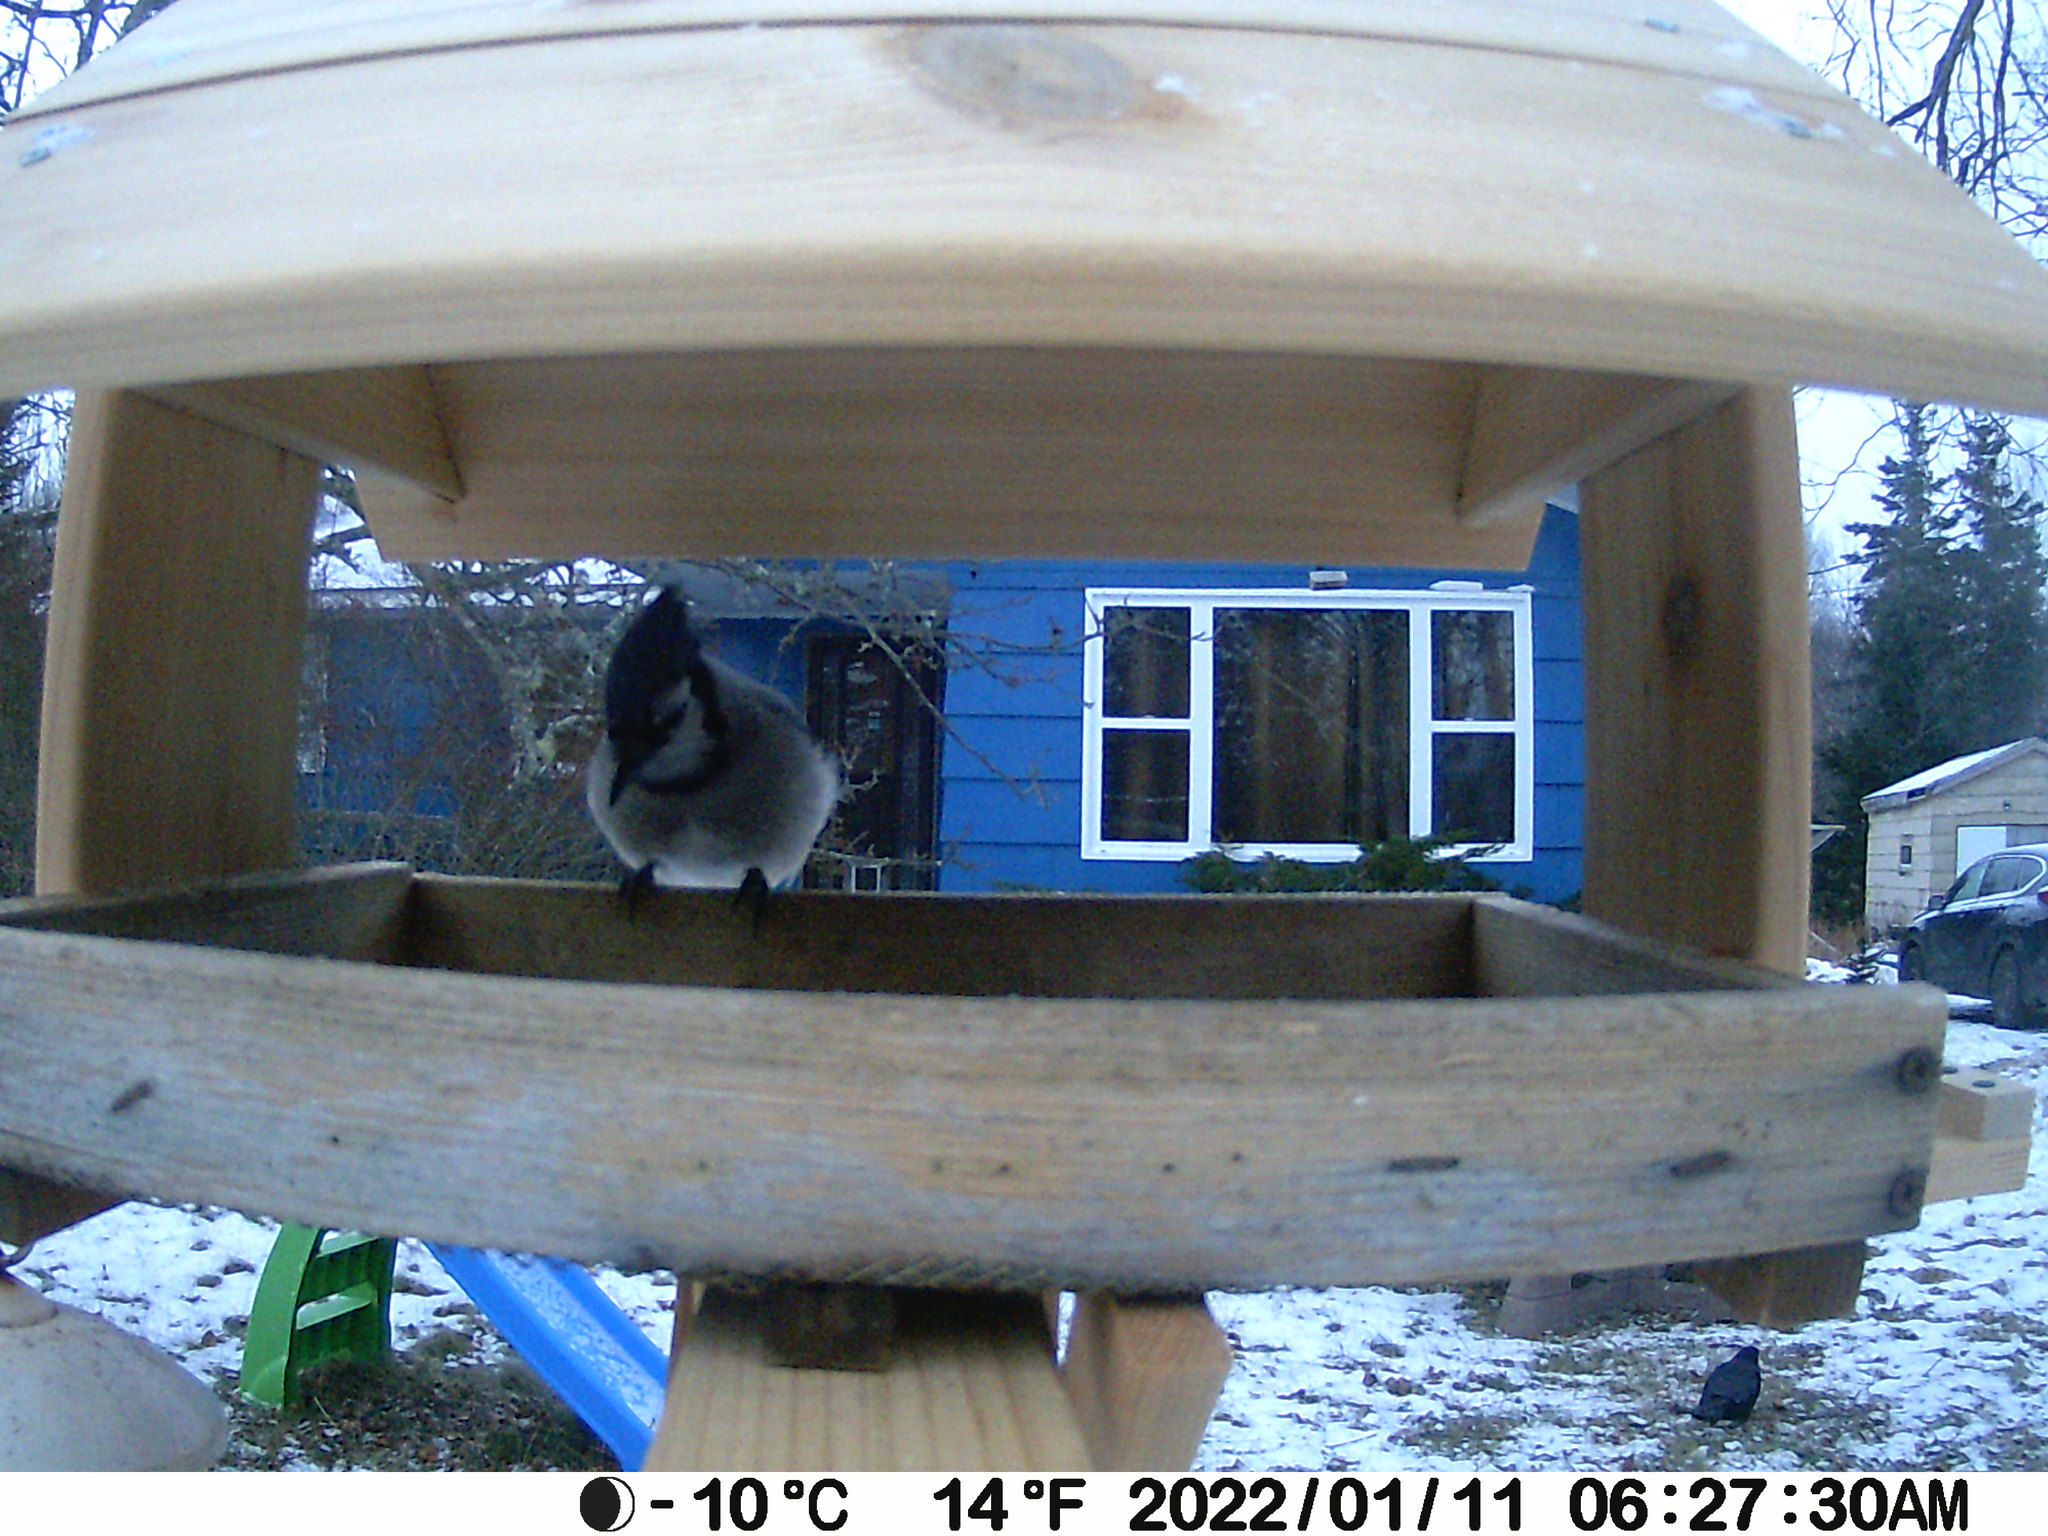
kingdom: Animalia
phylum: Chordata
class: Aves
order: Passeriformes
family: Corvidae
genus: Corvus
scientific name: Corvus brachyrhynchos
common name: American crow
